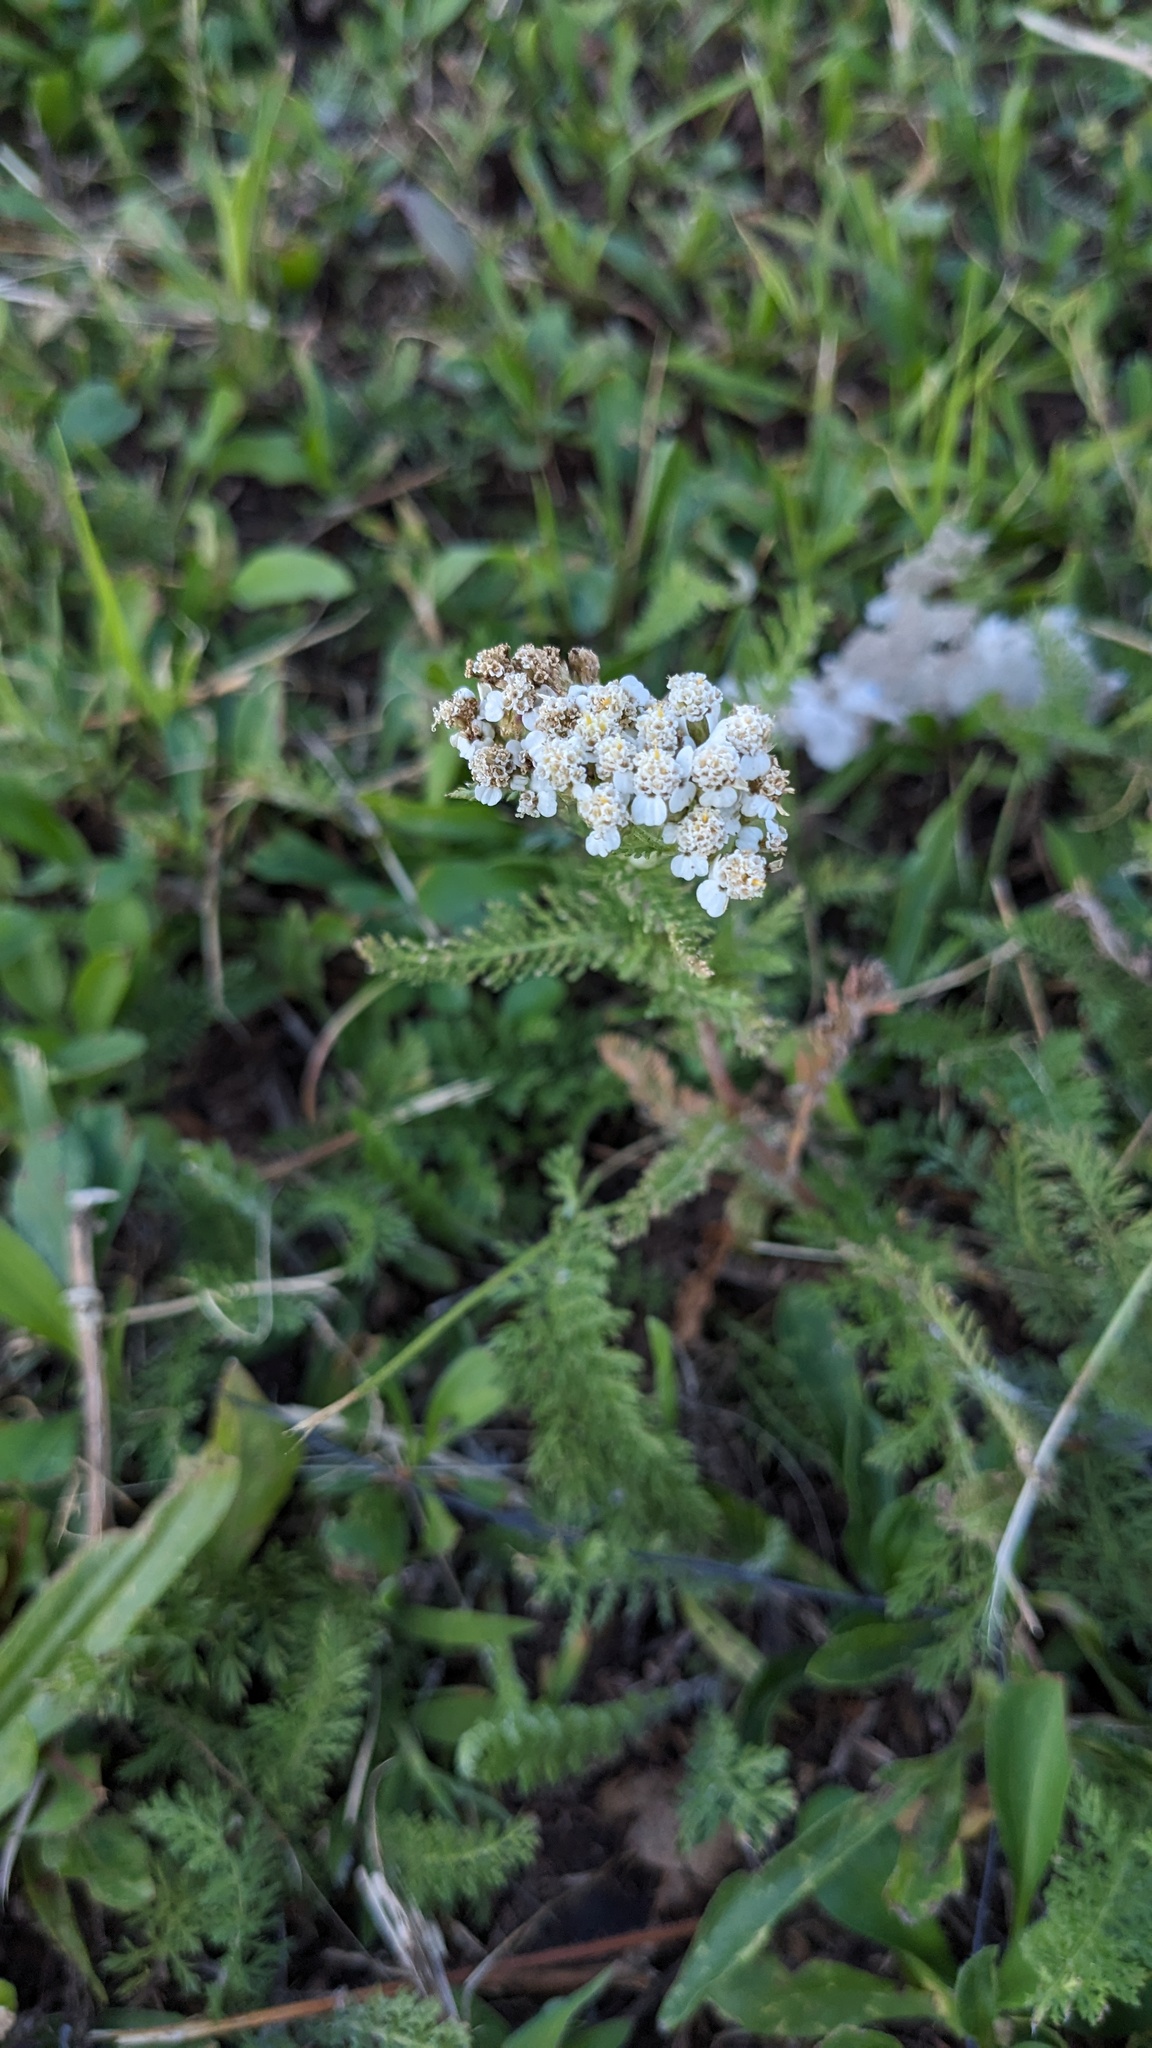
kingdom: Plantae
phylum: Tracheophyta
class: Magnoliopsida
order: Asterales
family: Asteraceae
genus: Achillea
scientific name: Achillea millefolium
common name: Yarrow
